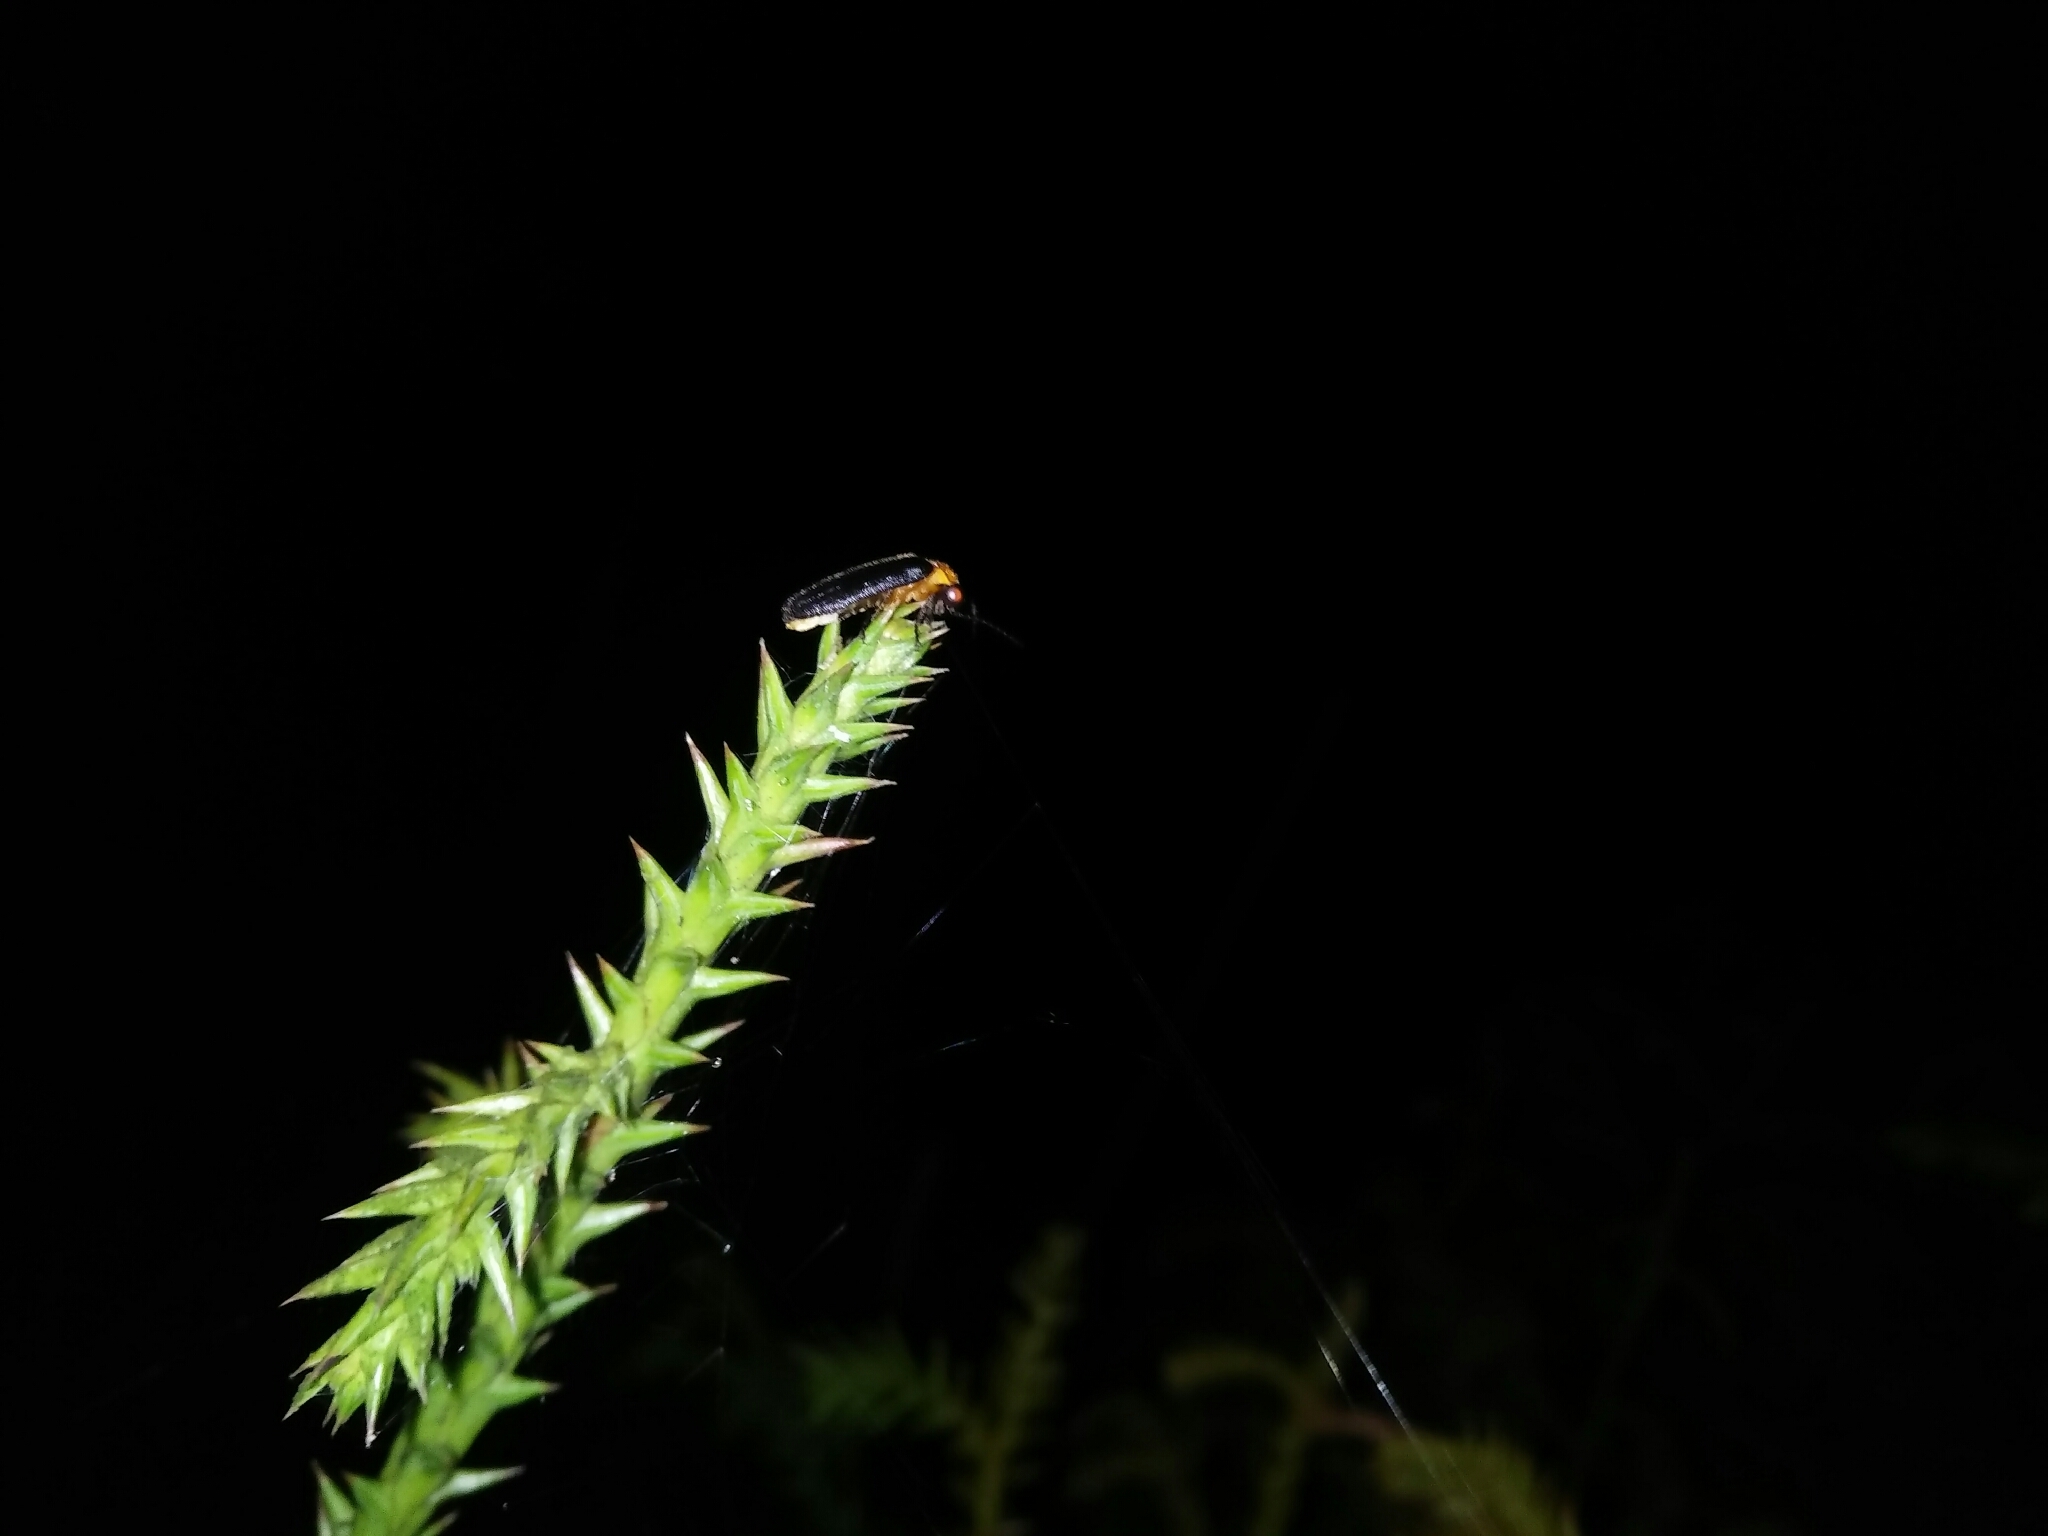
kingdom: Animalia
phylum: Arthropoda
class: Insecta
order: Coleoptera
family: Lampyridae
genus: Abscondita
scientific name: Abscondita cerata
